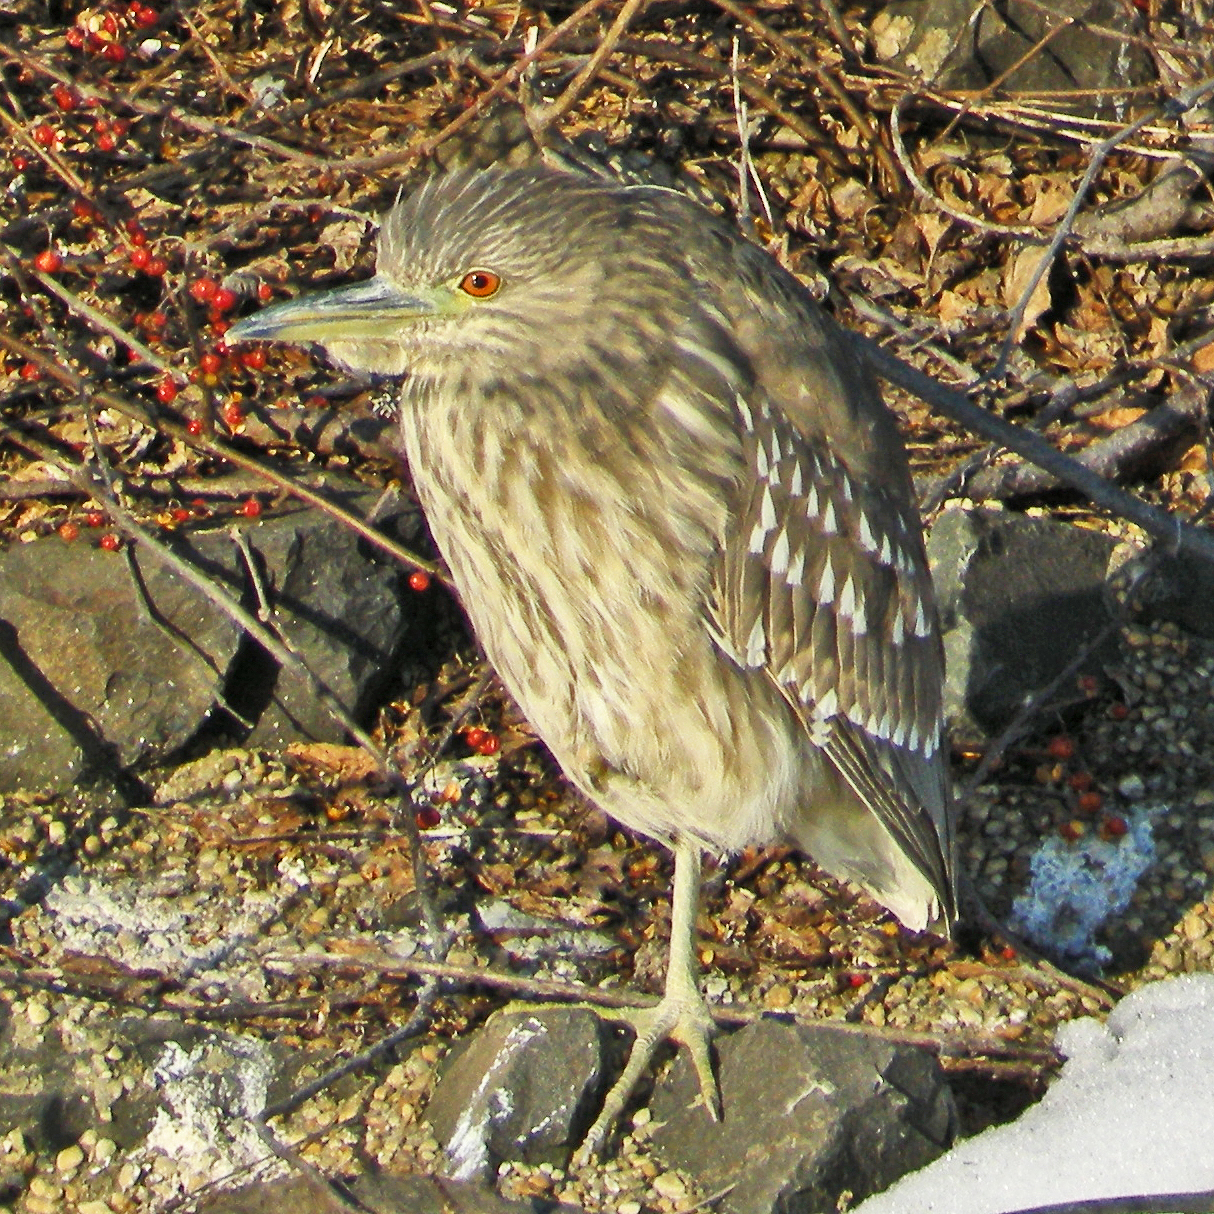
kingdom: Animalia
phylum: Chordata
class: Aves
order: Pelecaniformes
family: Ardeidae
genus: Nycticorax
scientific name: Nycticorax nycticorax
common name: Black-crowned night heron
